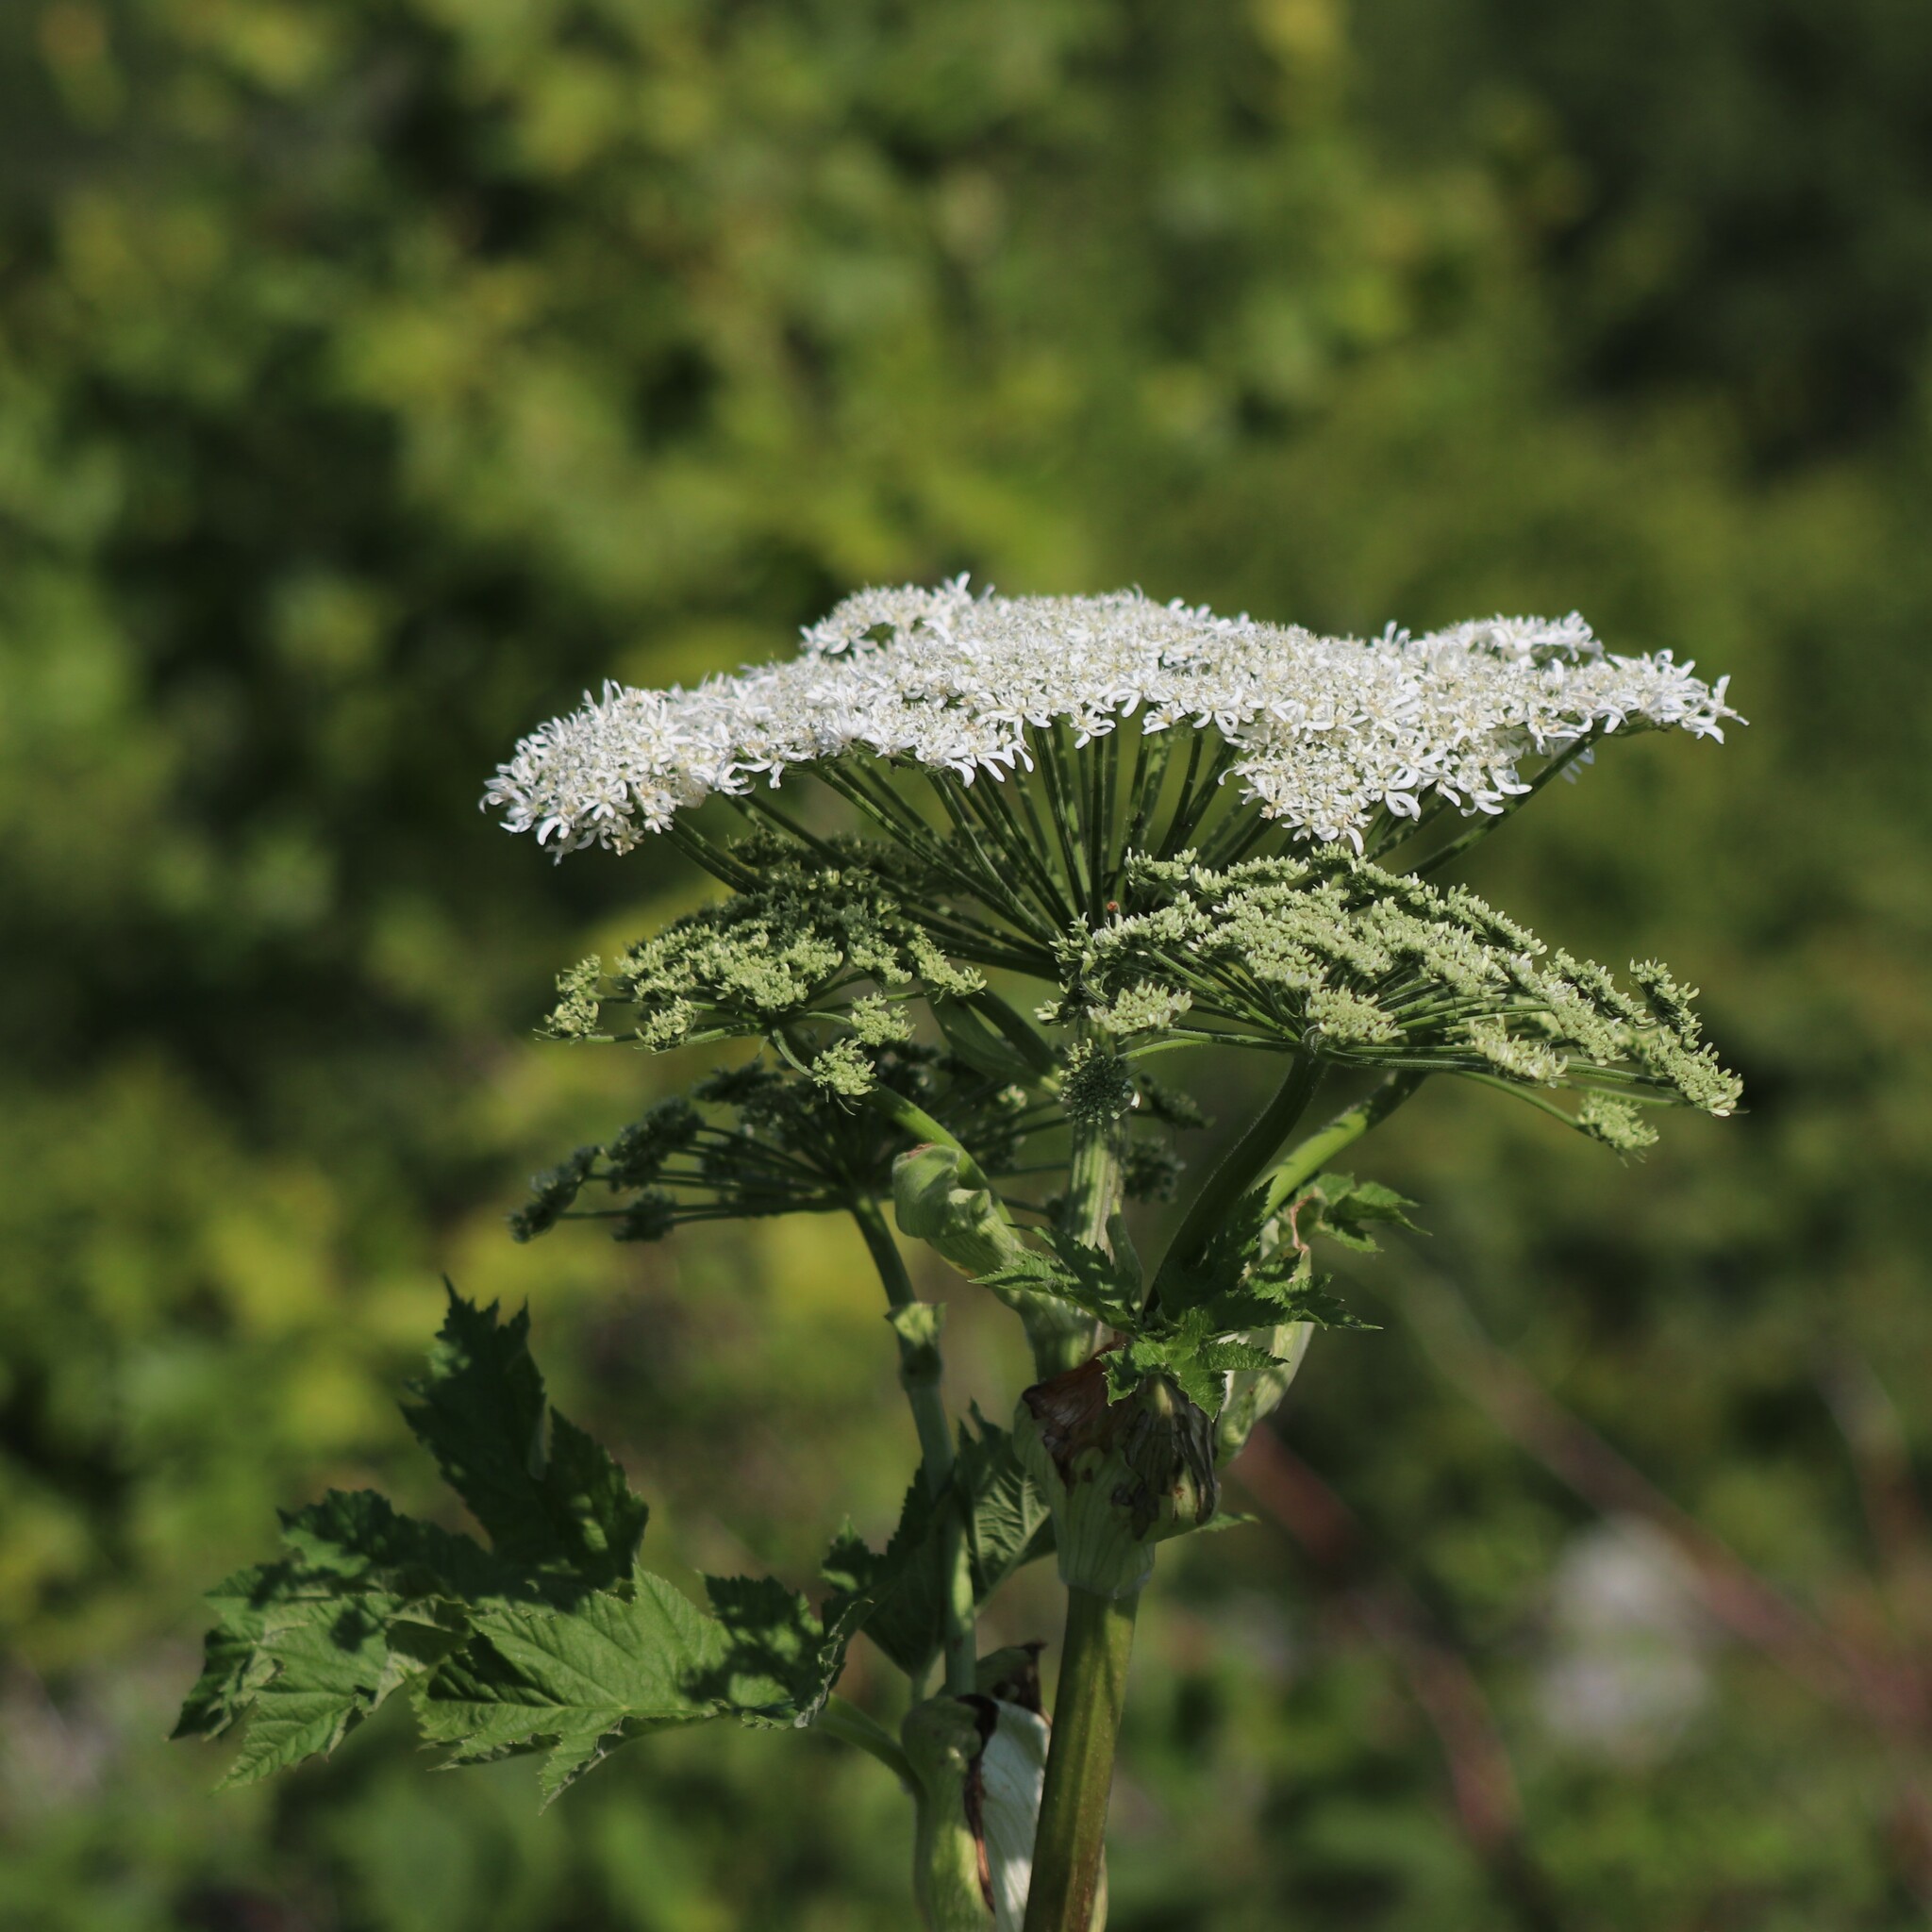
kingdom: Plantae
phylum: Tracheophyta
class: Magnoliopsida
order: Apiales
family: Apiaceae
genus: Heracleum
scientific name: Heracleum maximum
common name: American cow parsnip
